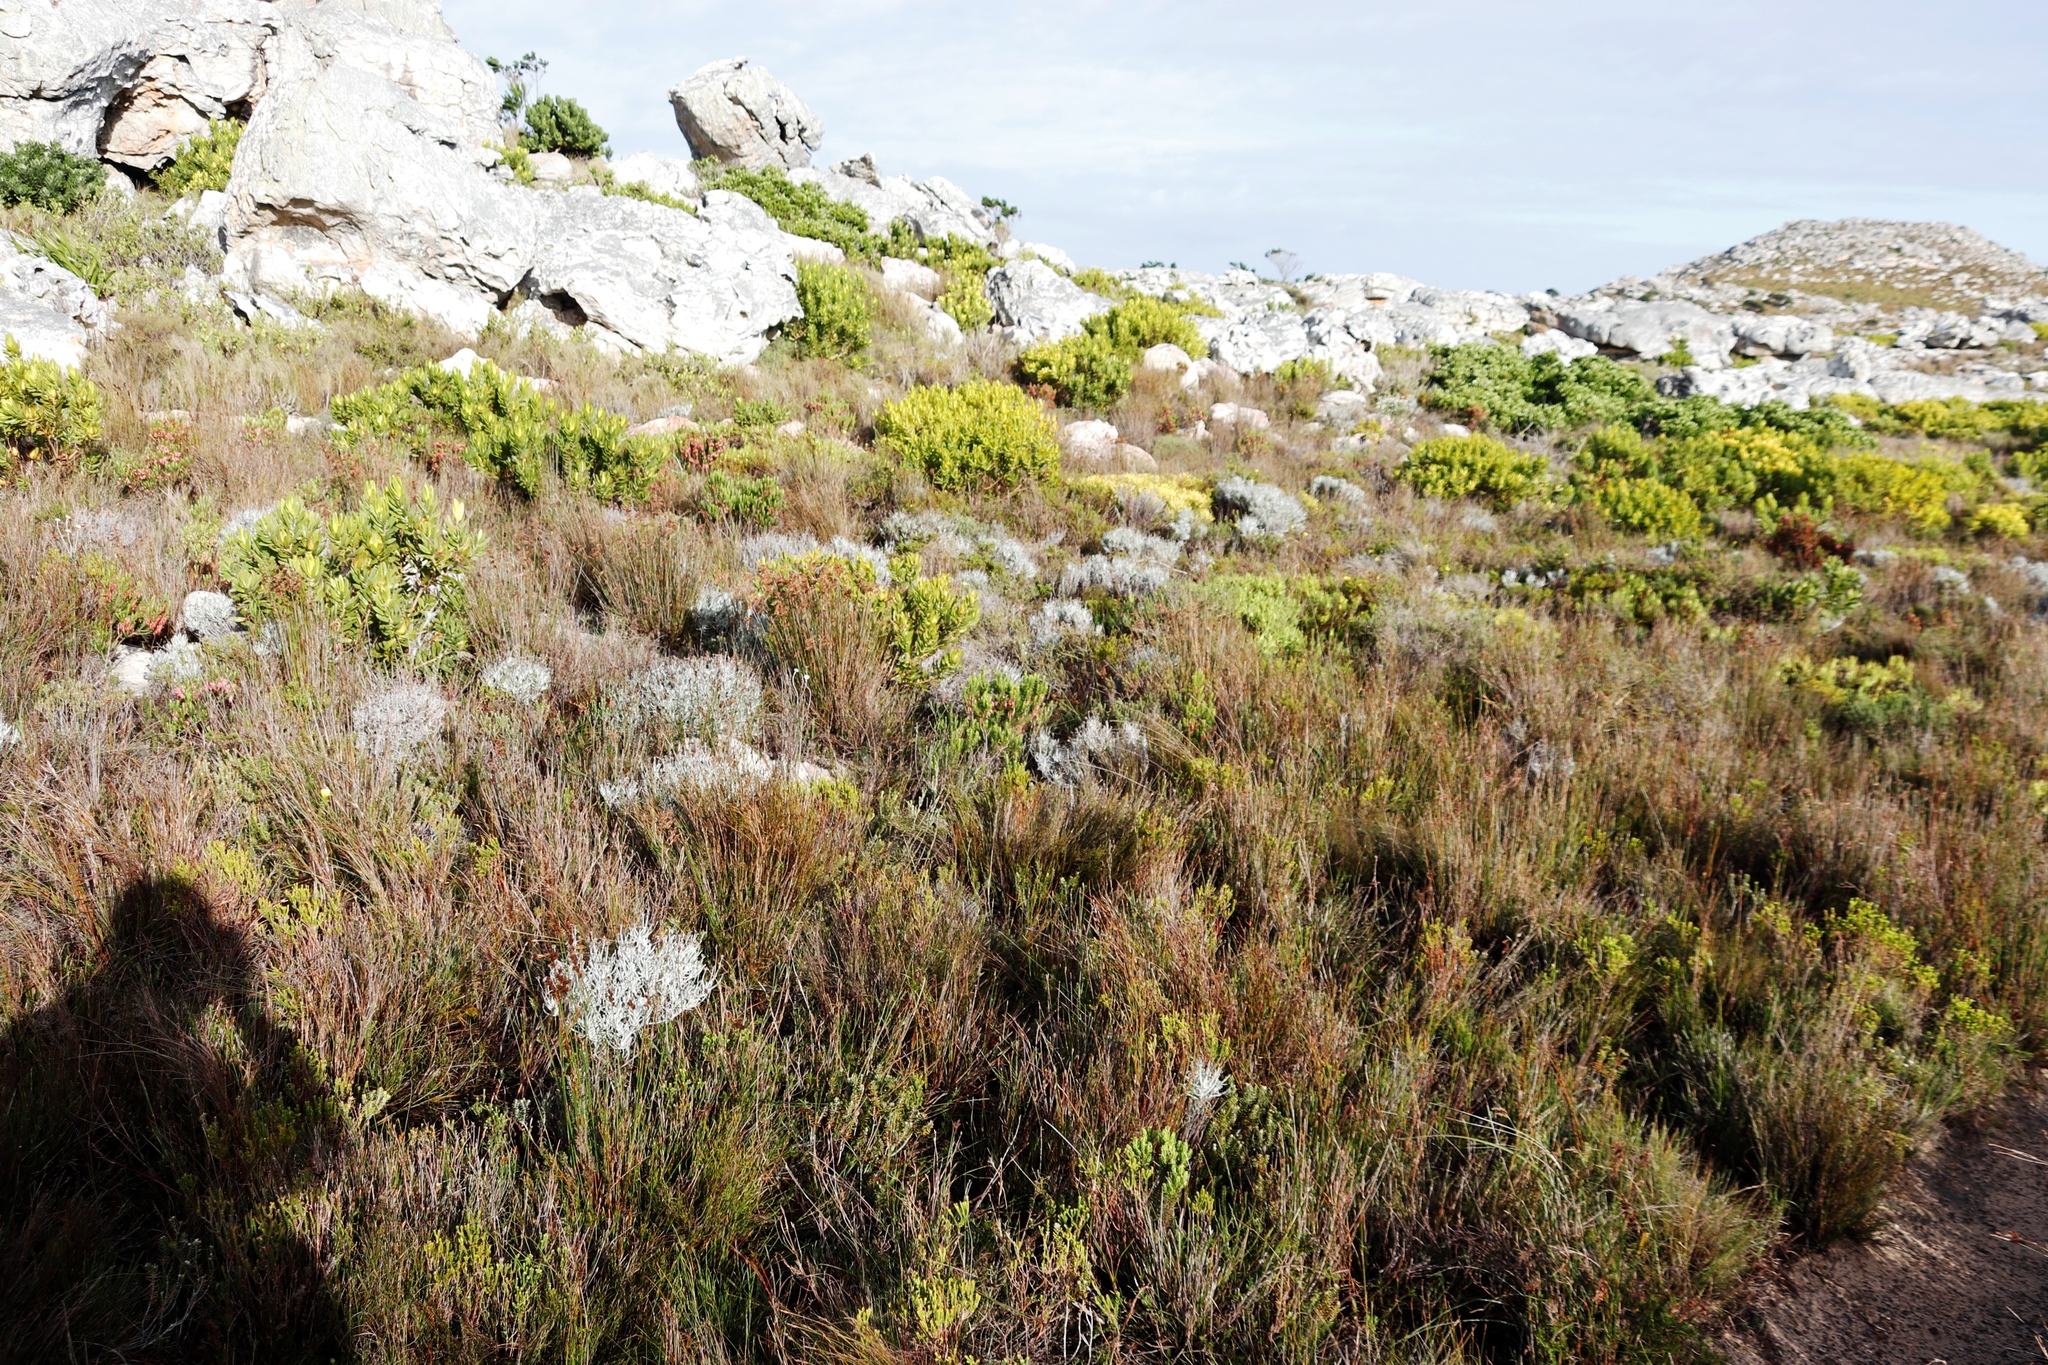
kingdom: Plantae
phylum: Tracheophyta
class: Magnoliopsida
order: Proteales
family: Proteaceae
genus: Leucadendron
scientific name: Leucadendron laureolum
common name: Golden sunshinebush
